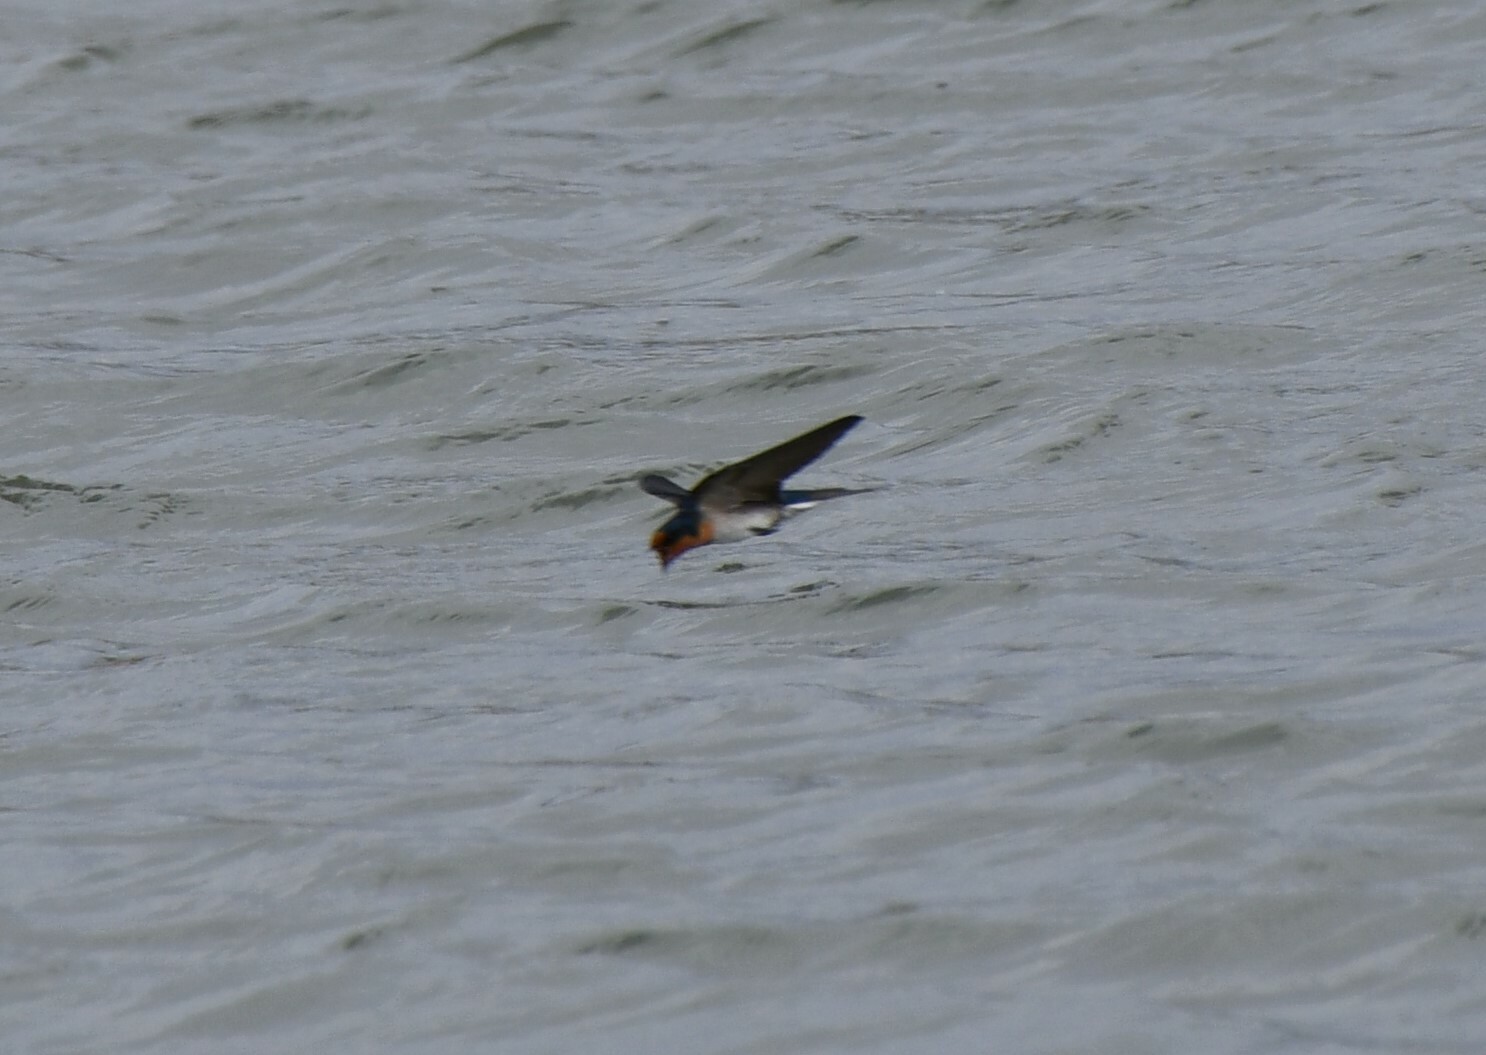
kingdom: Animalia
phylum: Chordata
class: Aves
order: Passeriformes
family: Hirundinidae
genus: Hirundo
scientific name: Hirundo neoxena
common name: Welcome swallow
